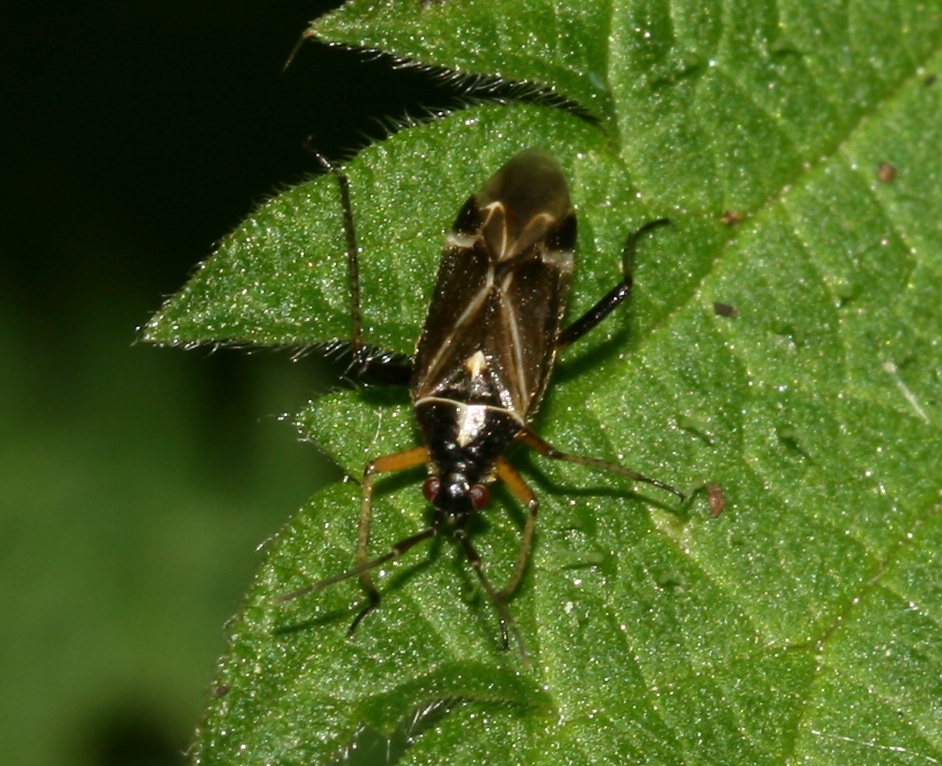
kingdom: Animalia
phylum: Arthropoda
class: Insecta
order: Hemiptera
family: Miridae
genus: Harpocera
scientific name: Harpocera thoracica
